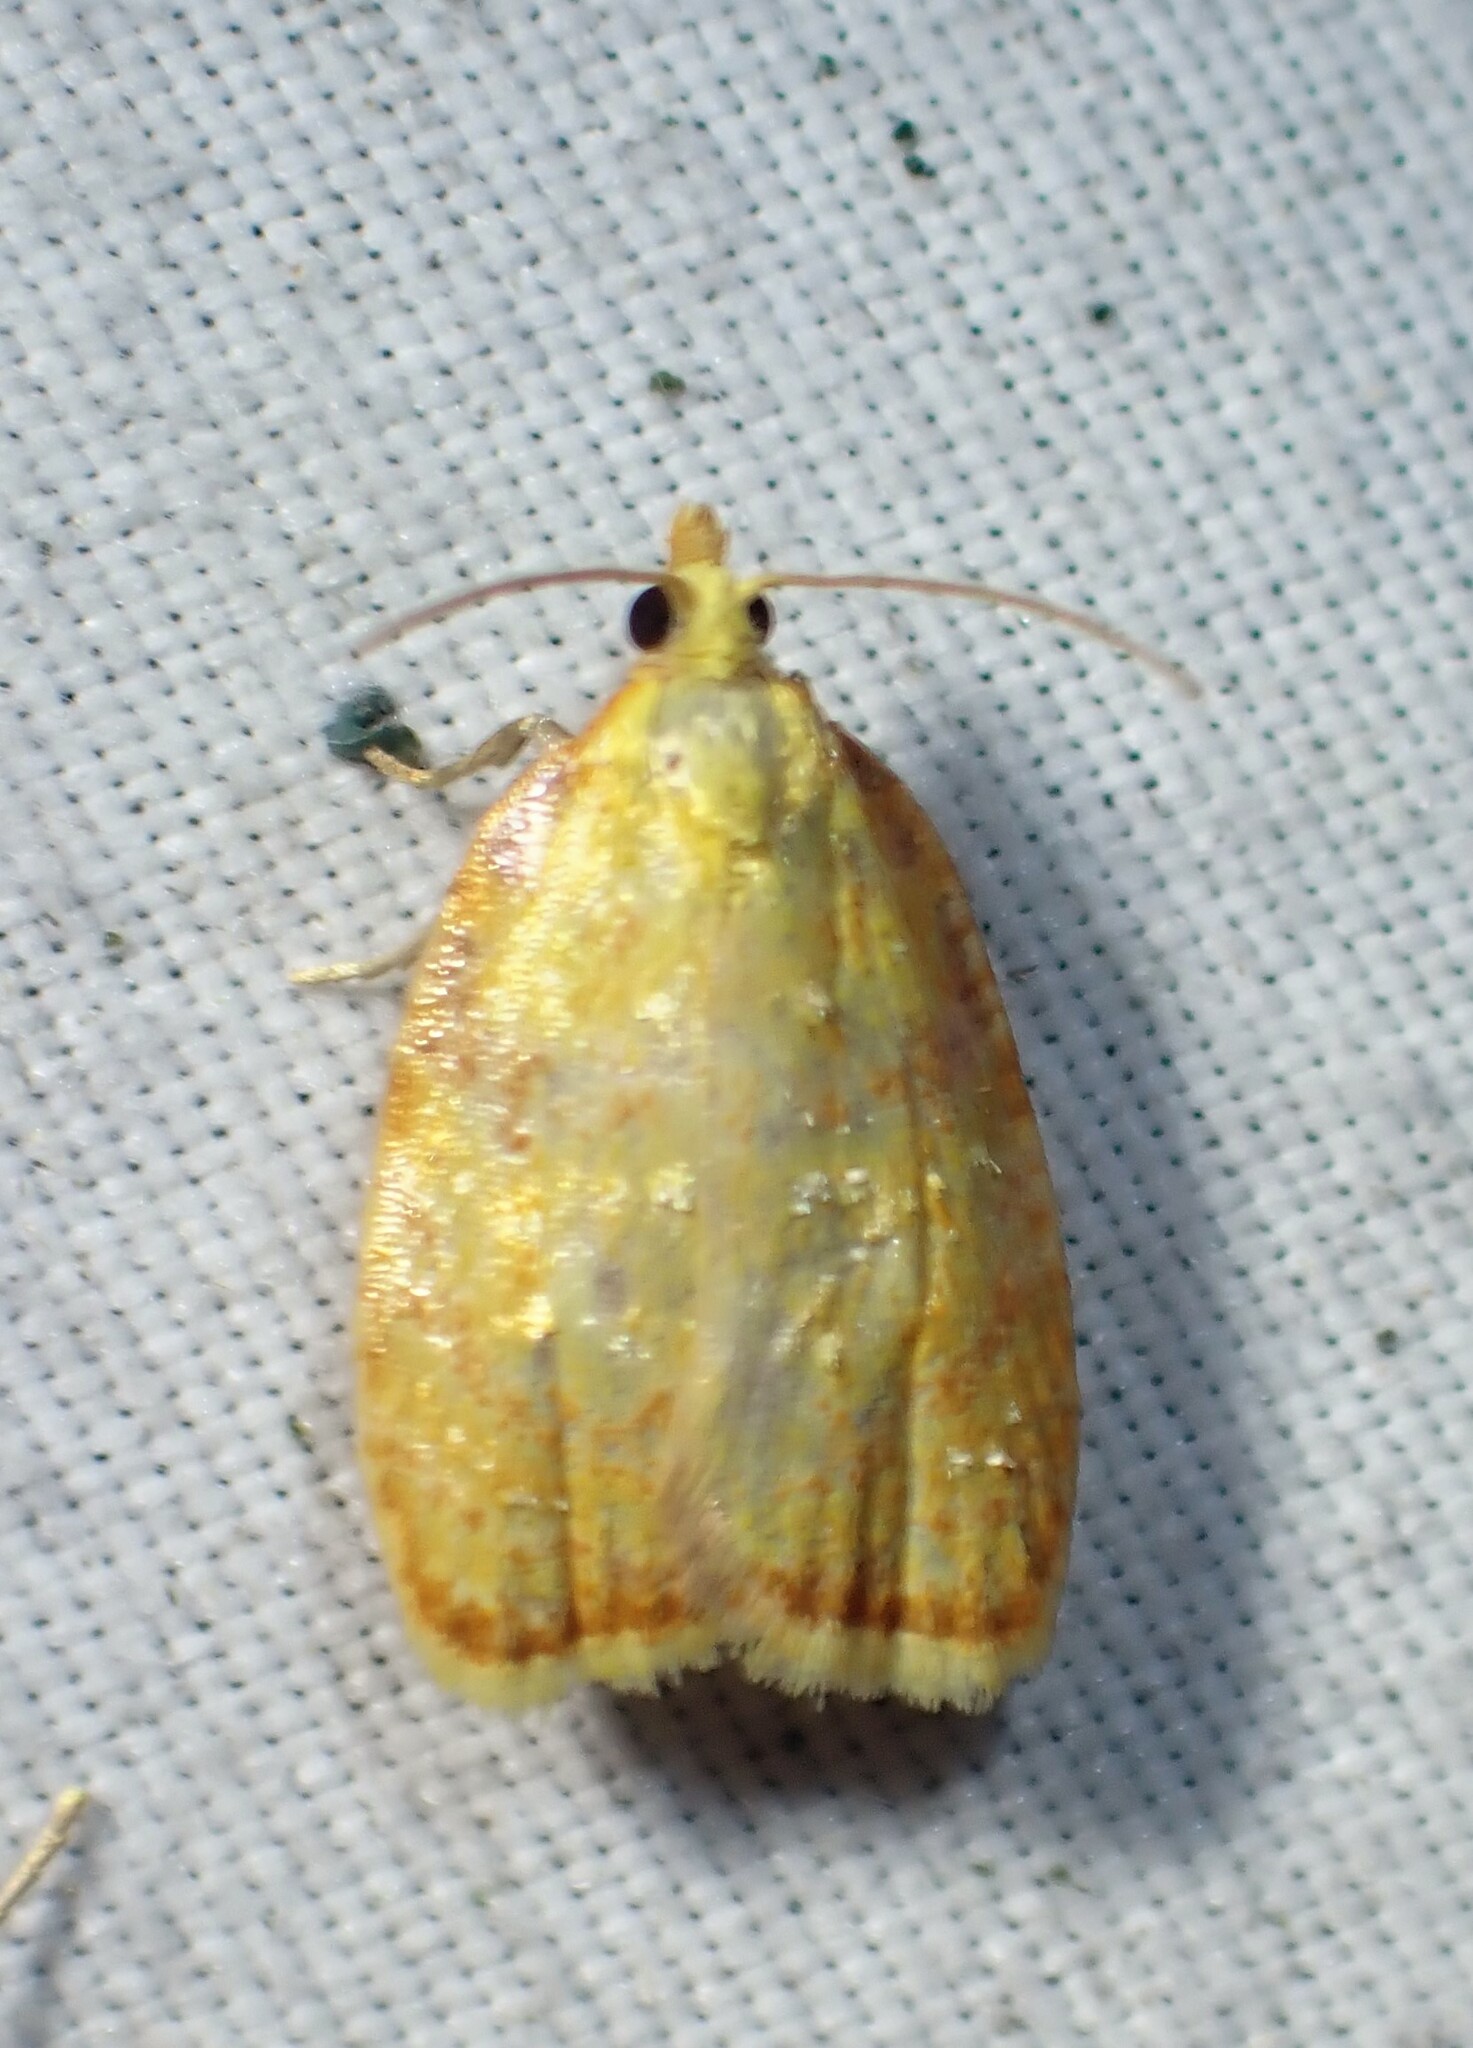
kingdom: Animalia
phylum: Arthropoda
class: Insecta
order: Lepidoptera
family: Tortricidae
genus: Acleris
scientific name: Acleris curvalana
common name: Blueberry leaftier moth
